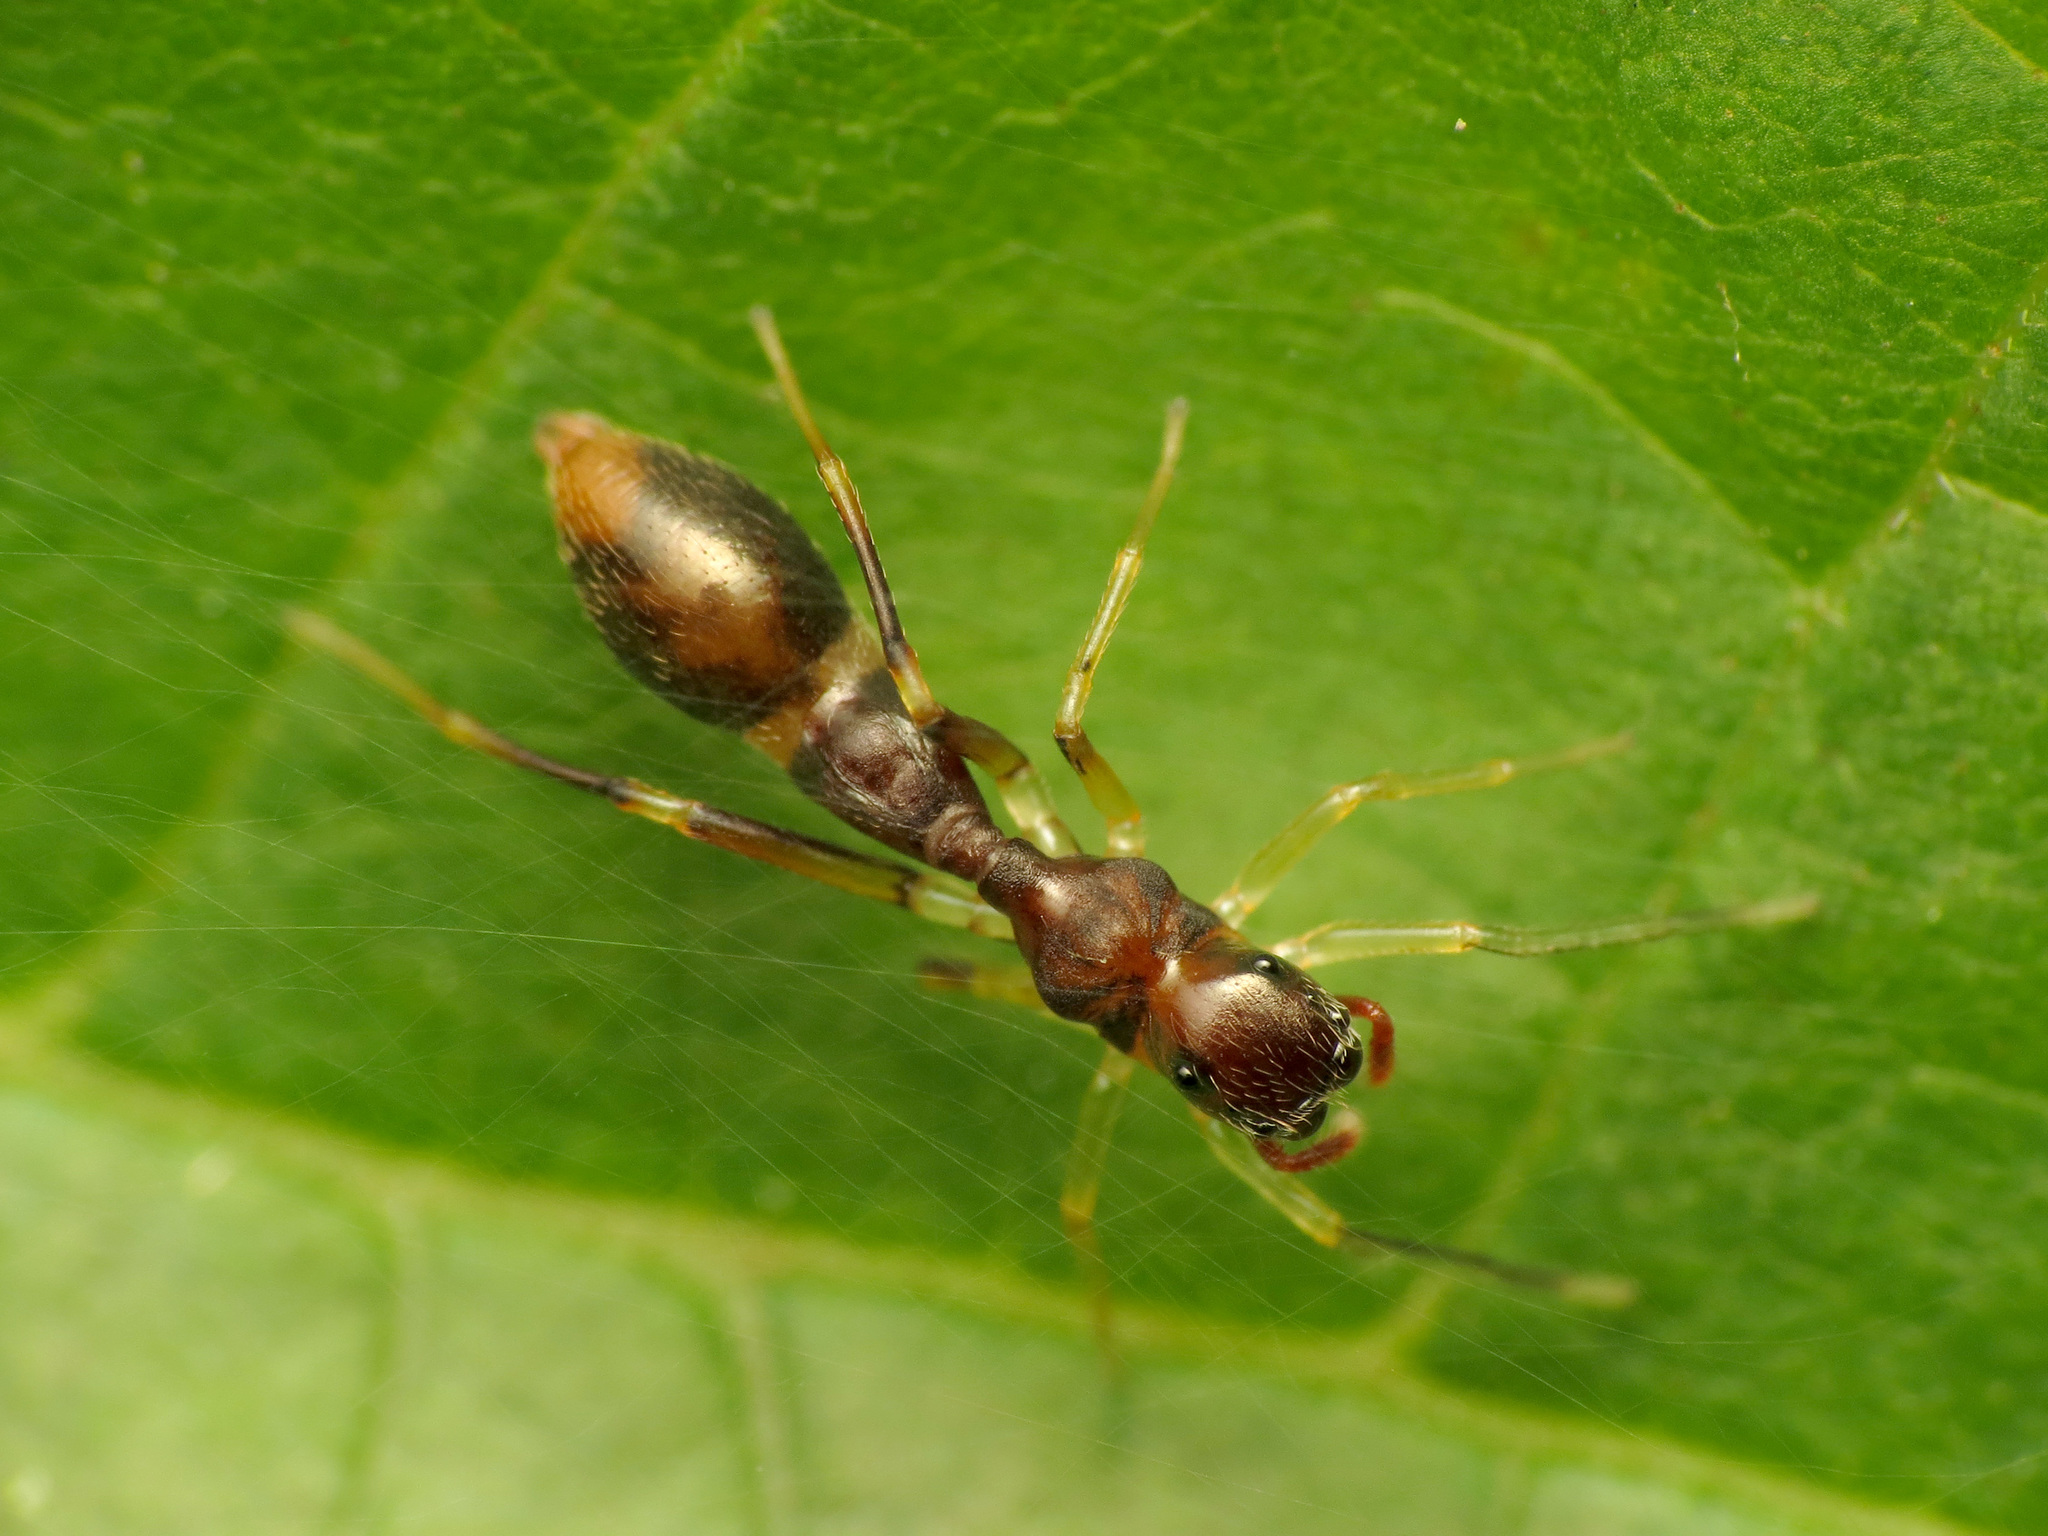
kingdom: Animalia
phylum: Arthropoda
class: Arachnida
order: Araneae
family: Salticidae
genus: Synemosyna
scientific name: Synemosyna formica
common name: Slender ant-mimic jumping spider
